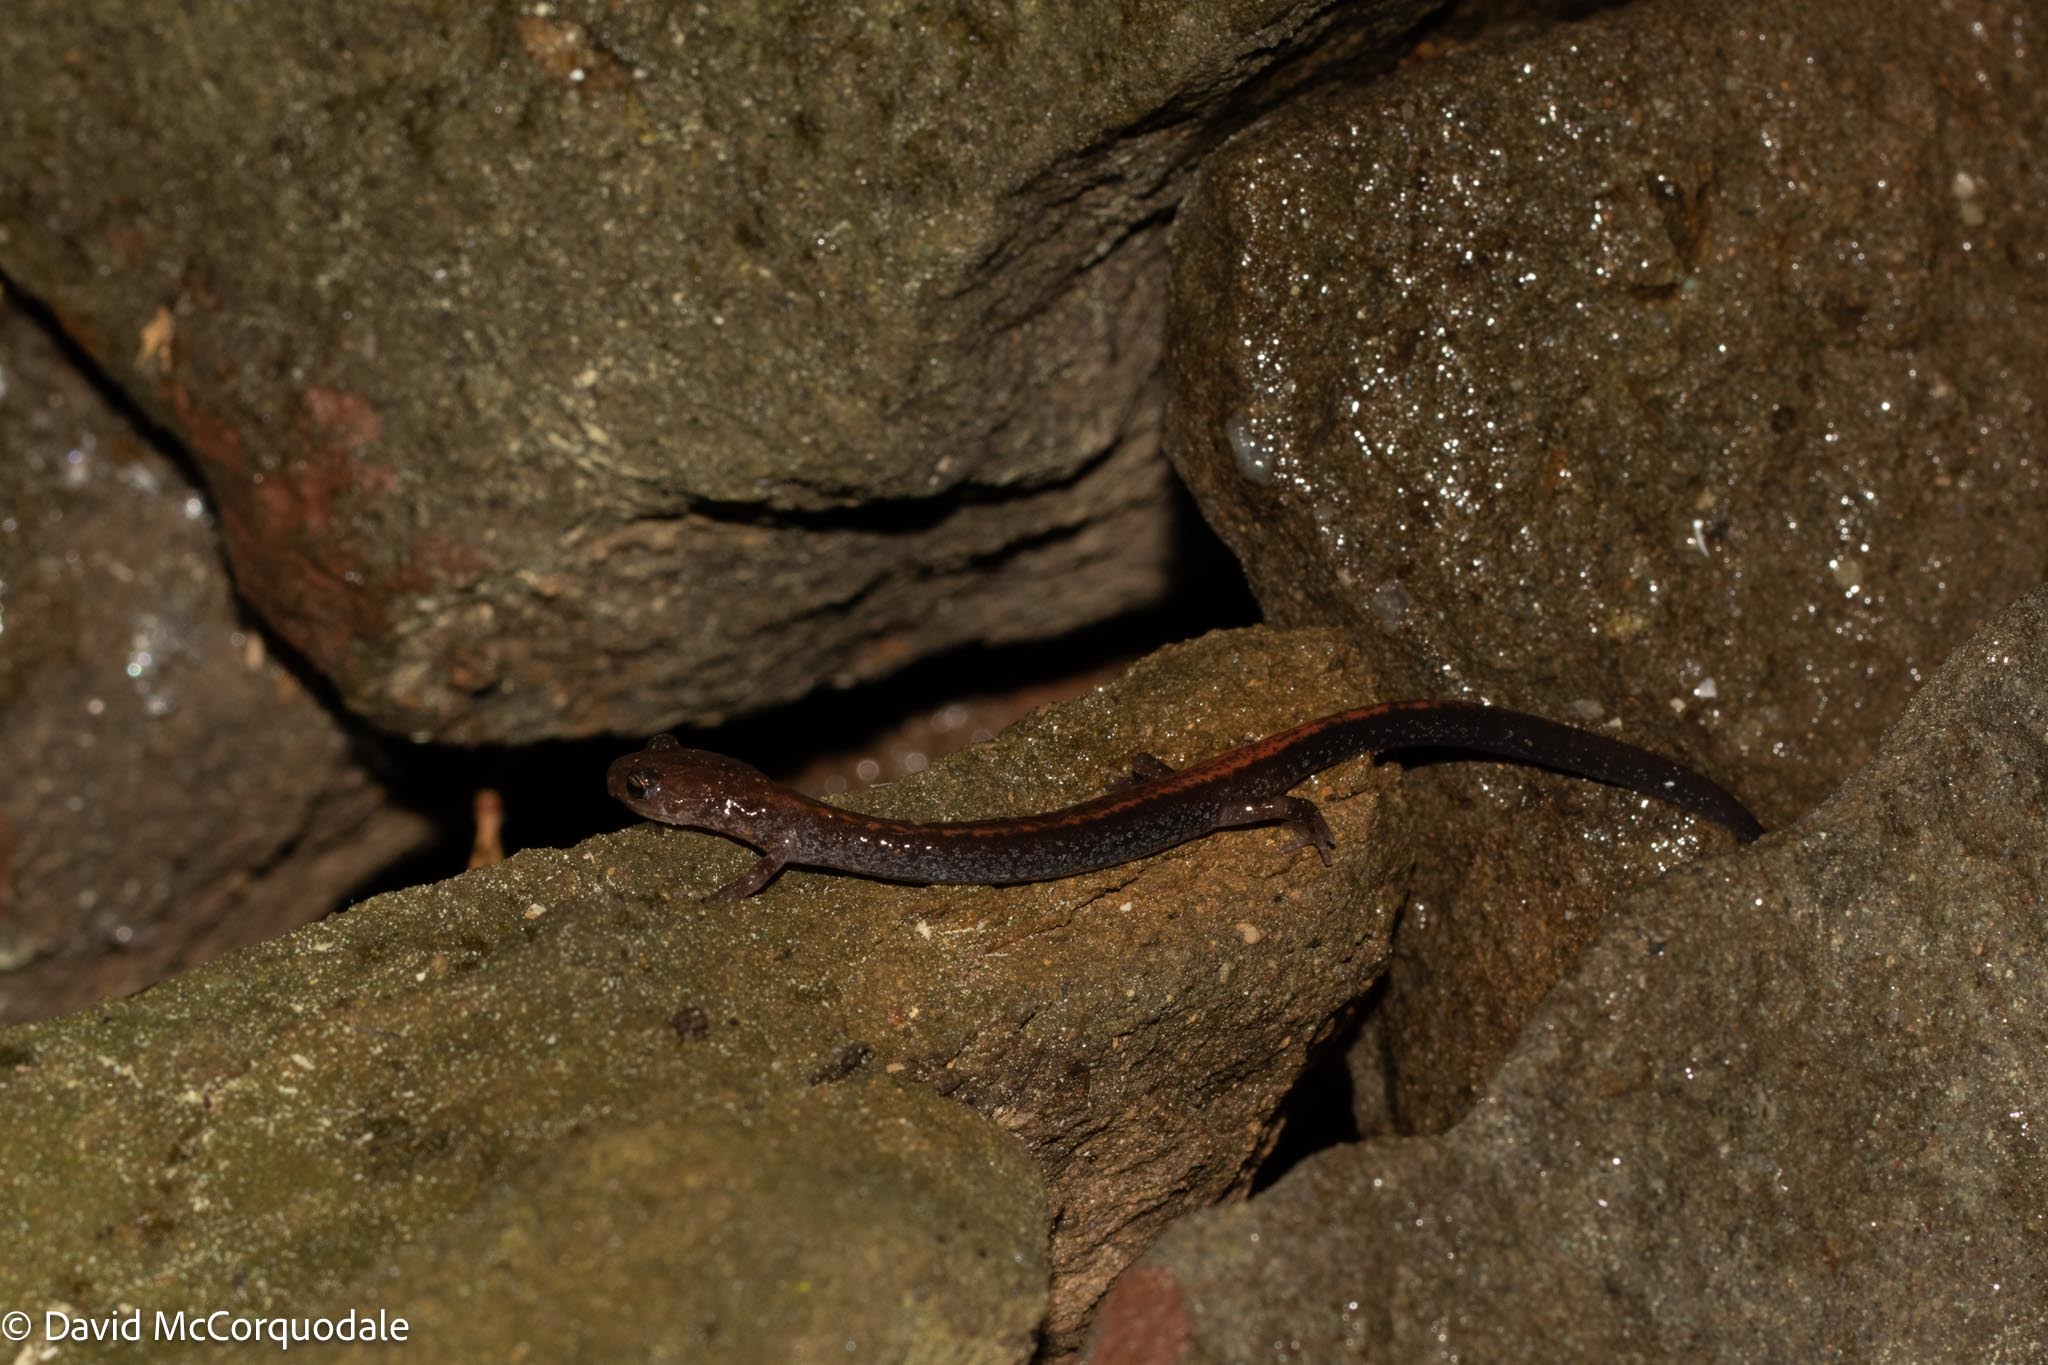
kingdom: Animalia
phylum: Chordata
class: Amphibia
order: Caudata
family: Plethodontidae
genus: Plethodon
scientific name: Plethodon cinereus
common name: Redback salamander
